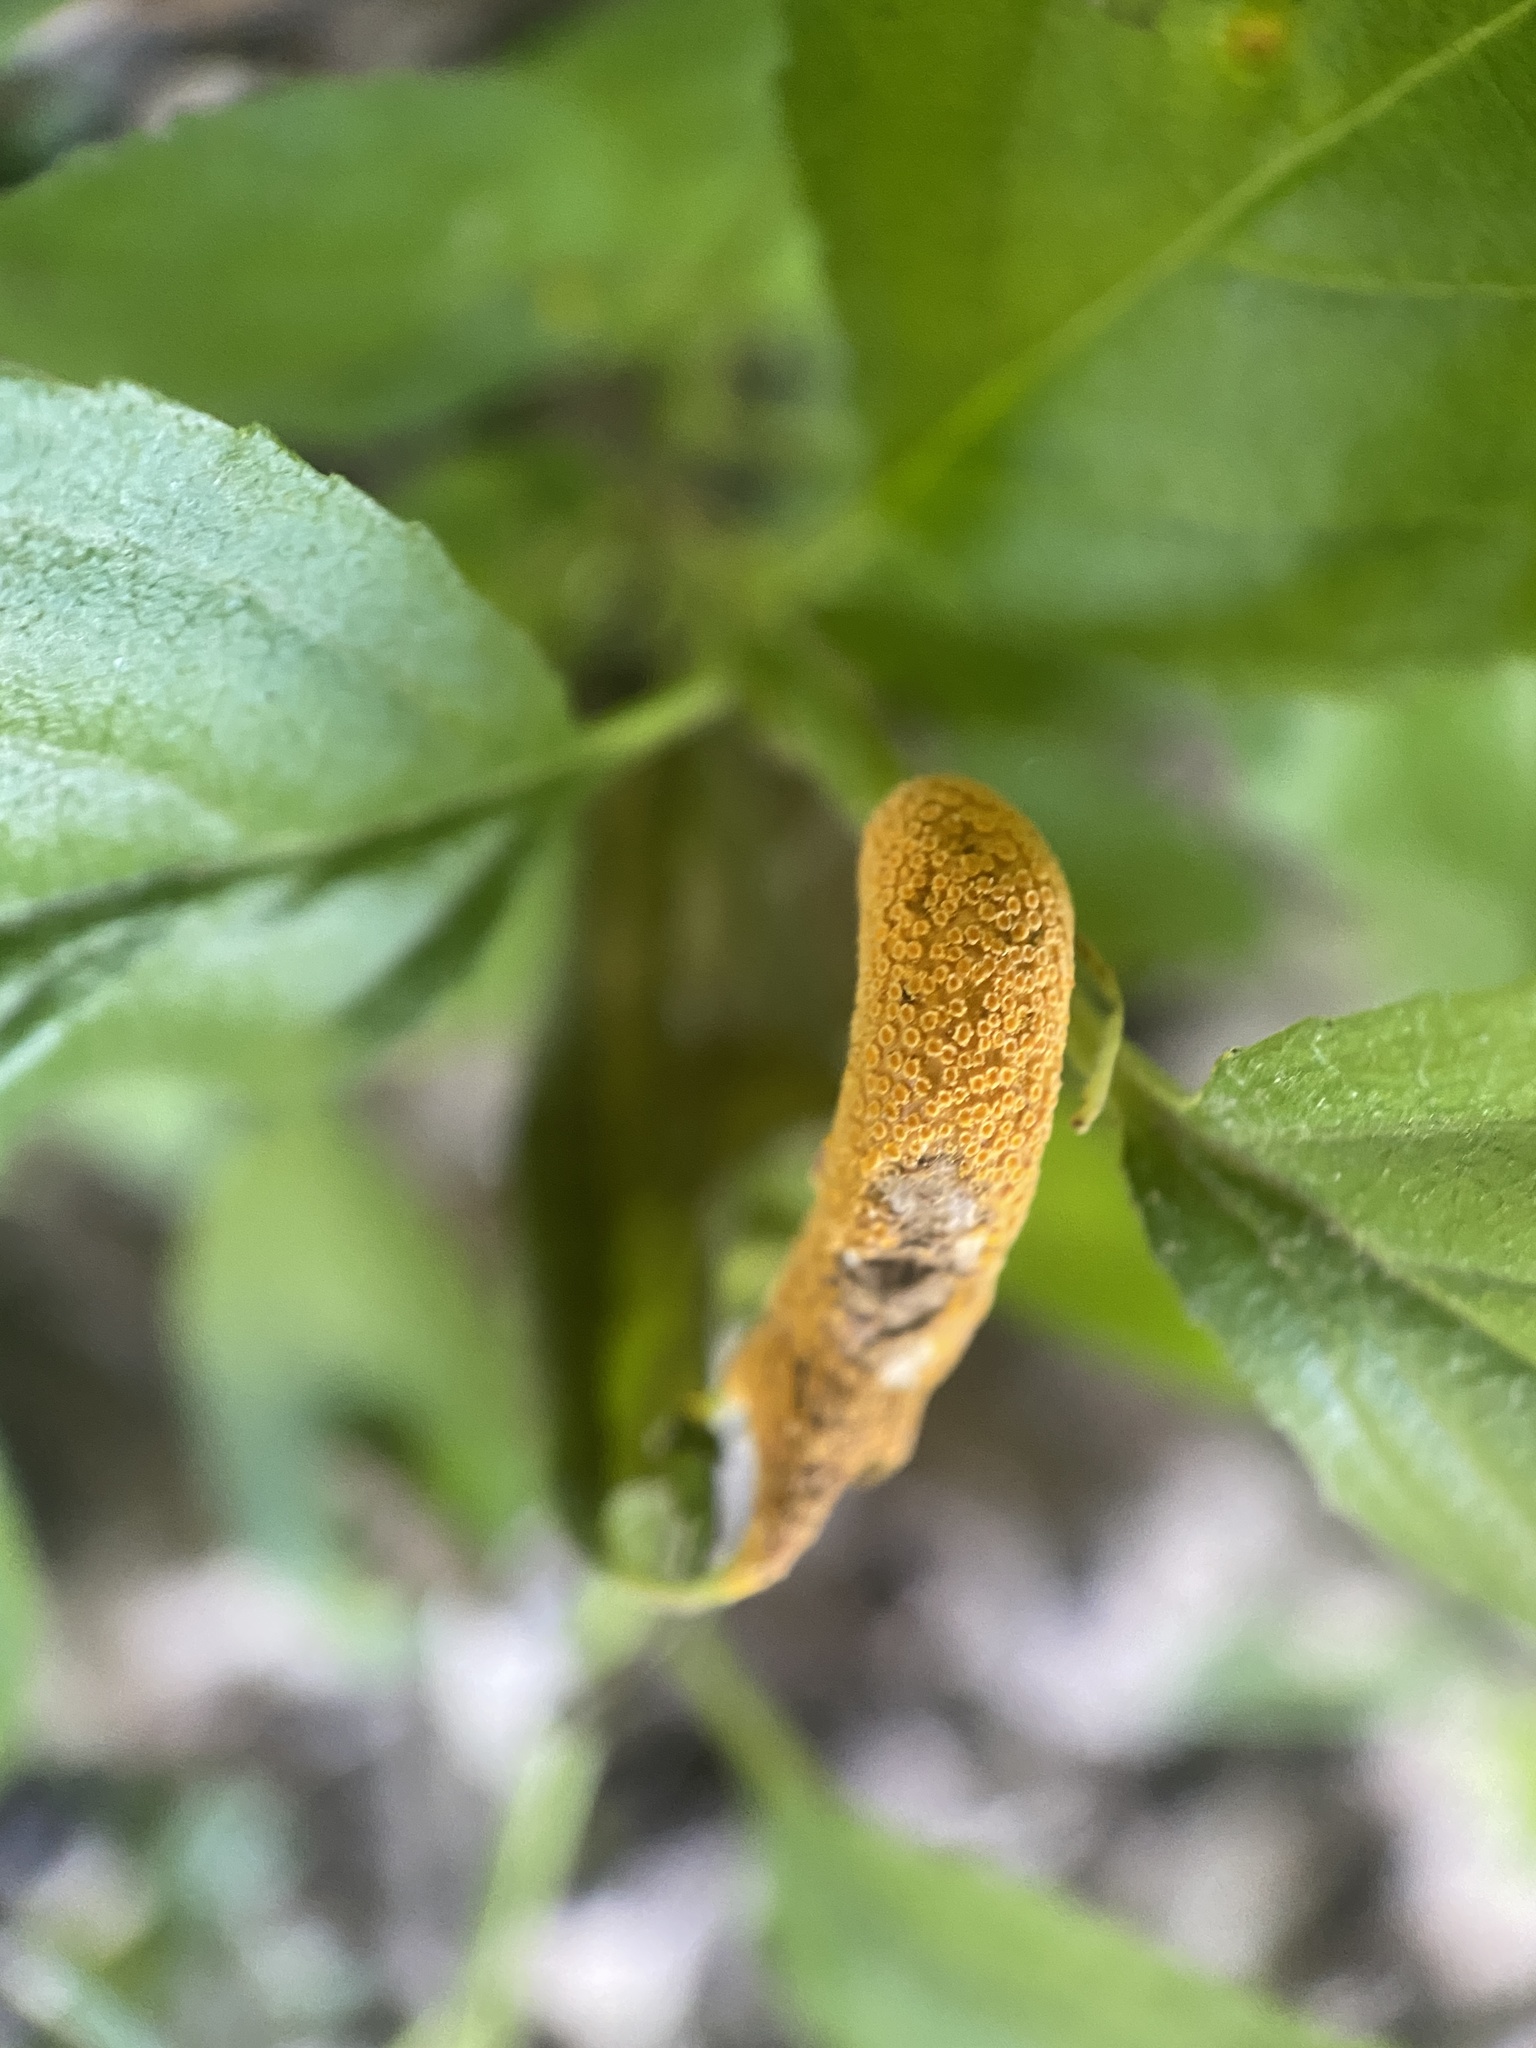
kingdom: Fungi
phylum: Basidiomycota
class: Pucciniomycetes
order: Pucciniales
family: Pucciniaceae
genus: Puccinia
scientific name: Puccinia coronata
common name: Crown rust
